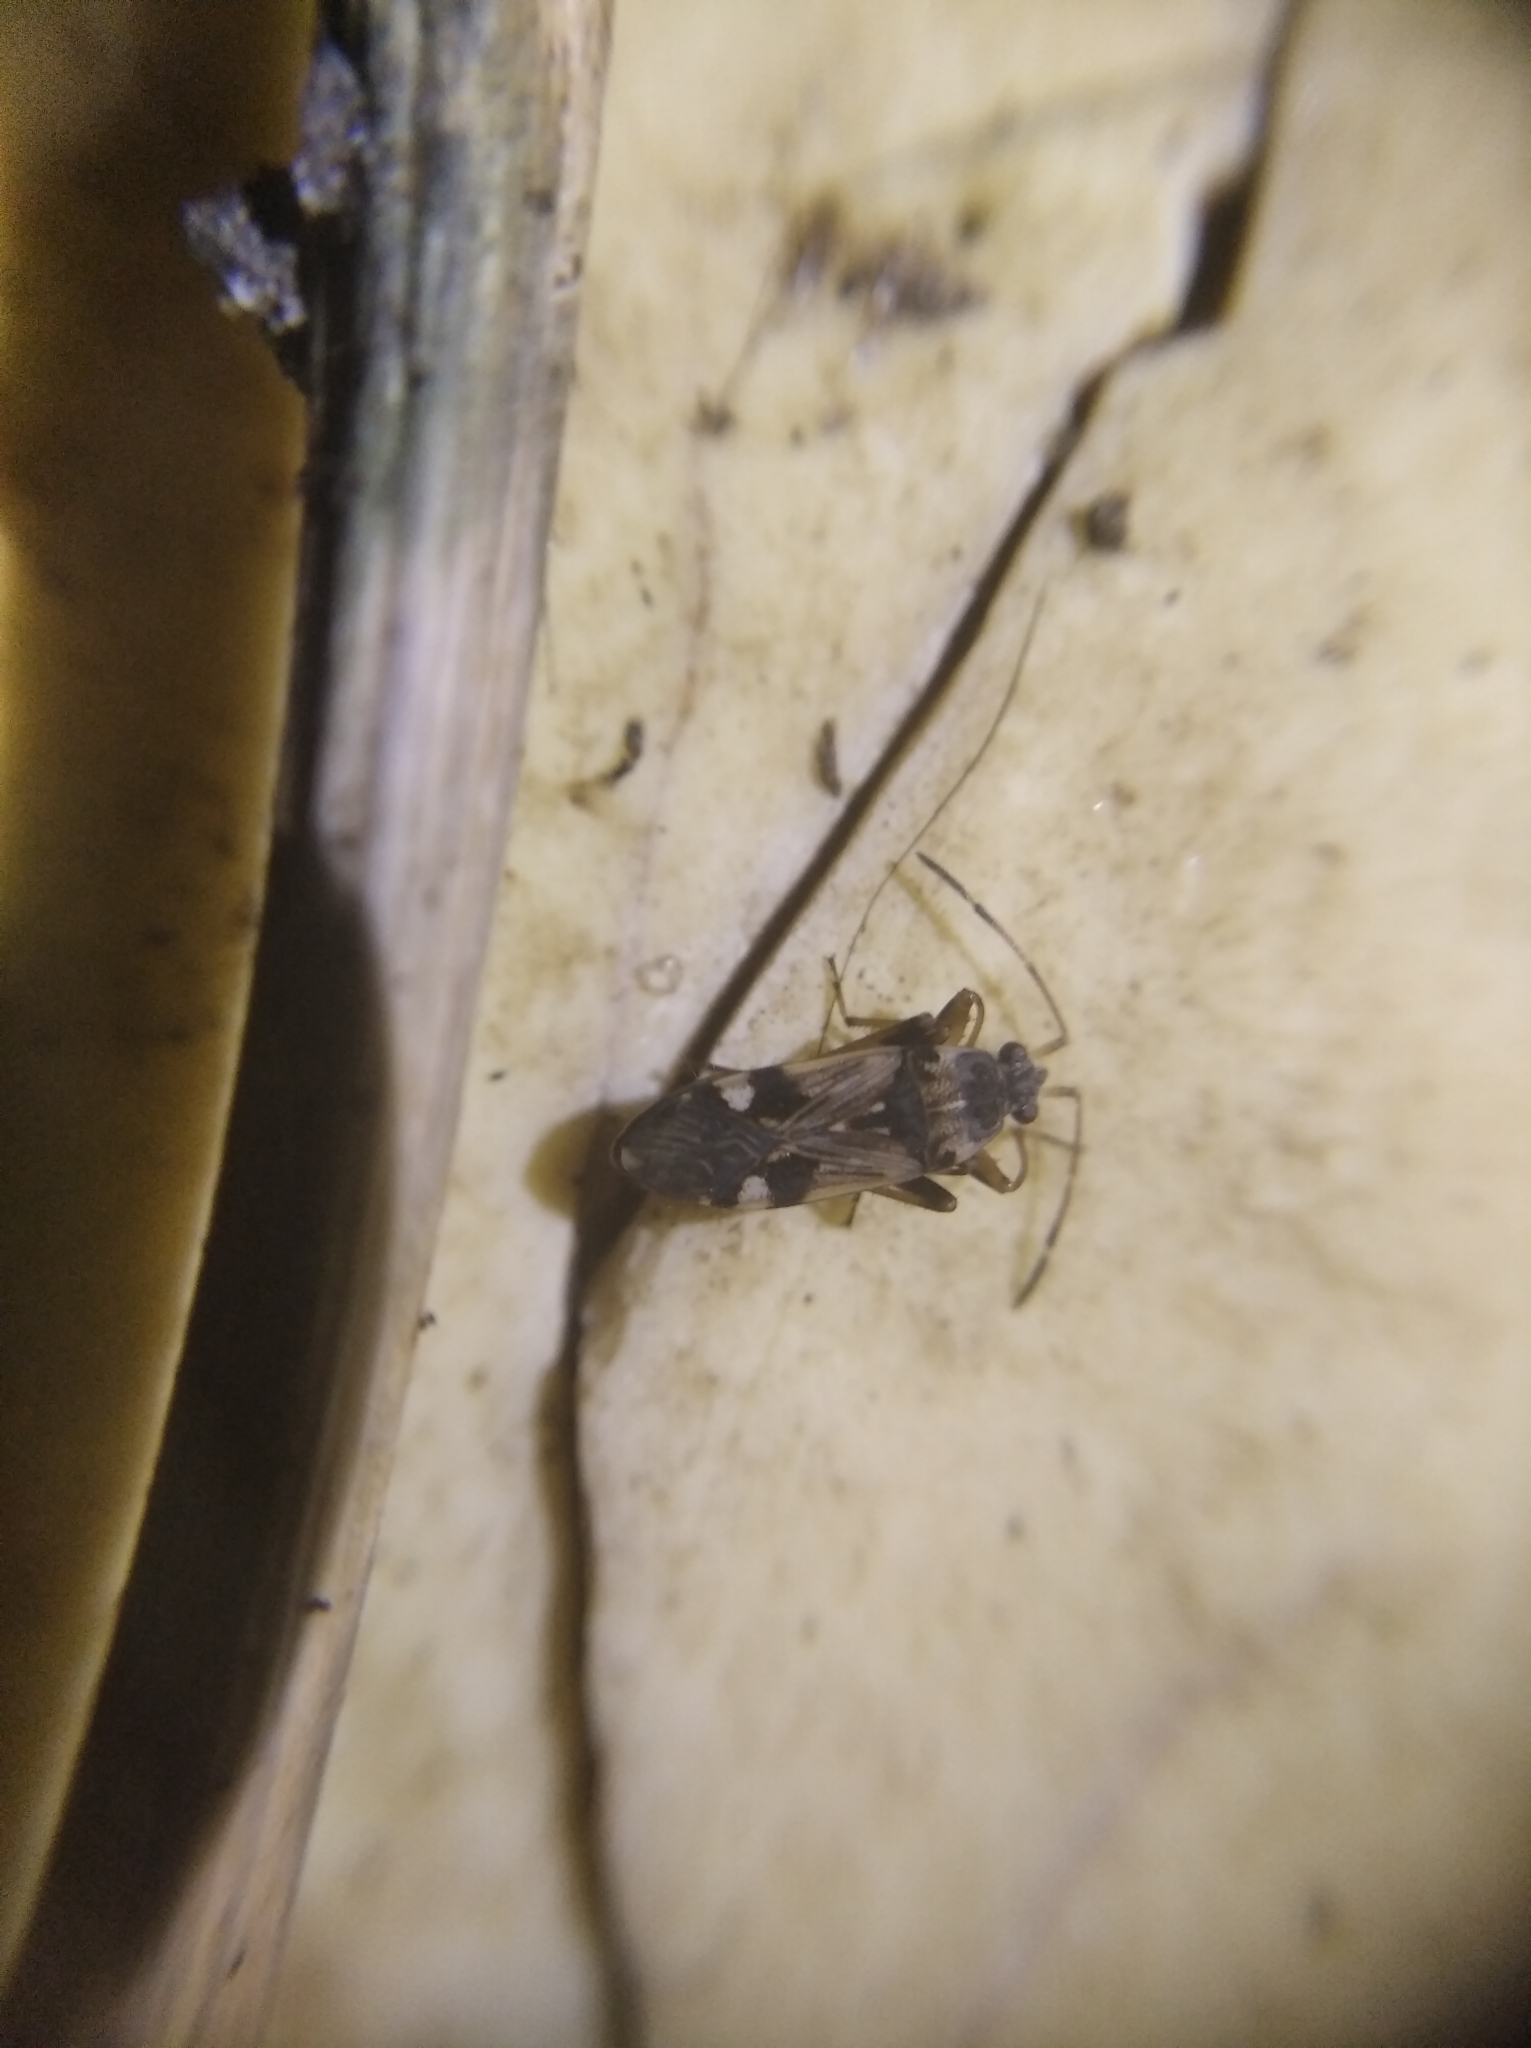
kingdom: Animalia
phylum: Arthropoda
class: Insecta
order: Hemiptera
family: Rhyparochromidae
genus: Beosus
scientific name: Beosus maritimus
